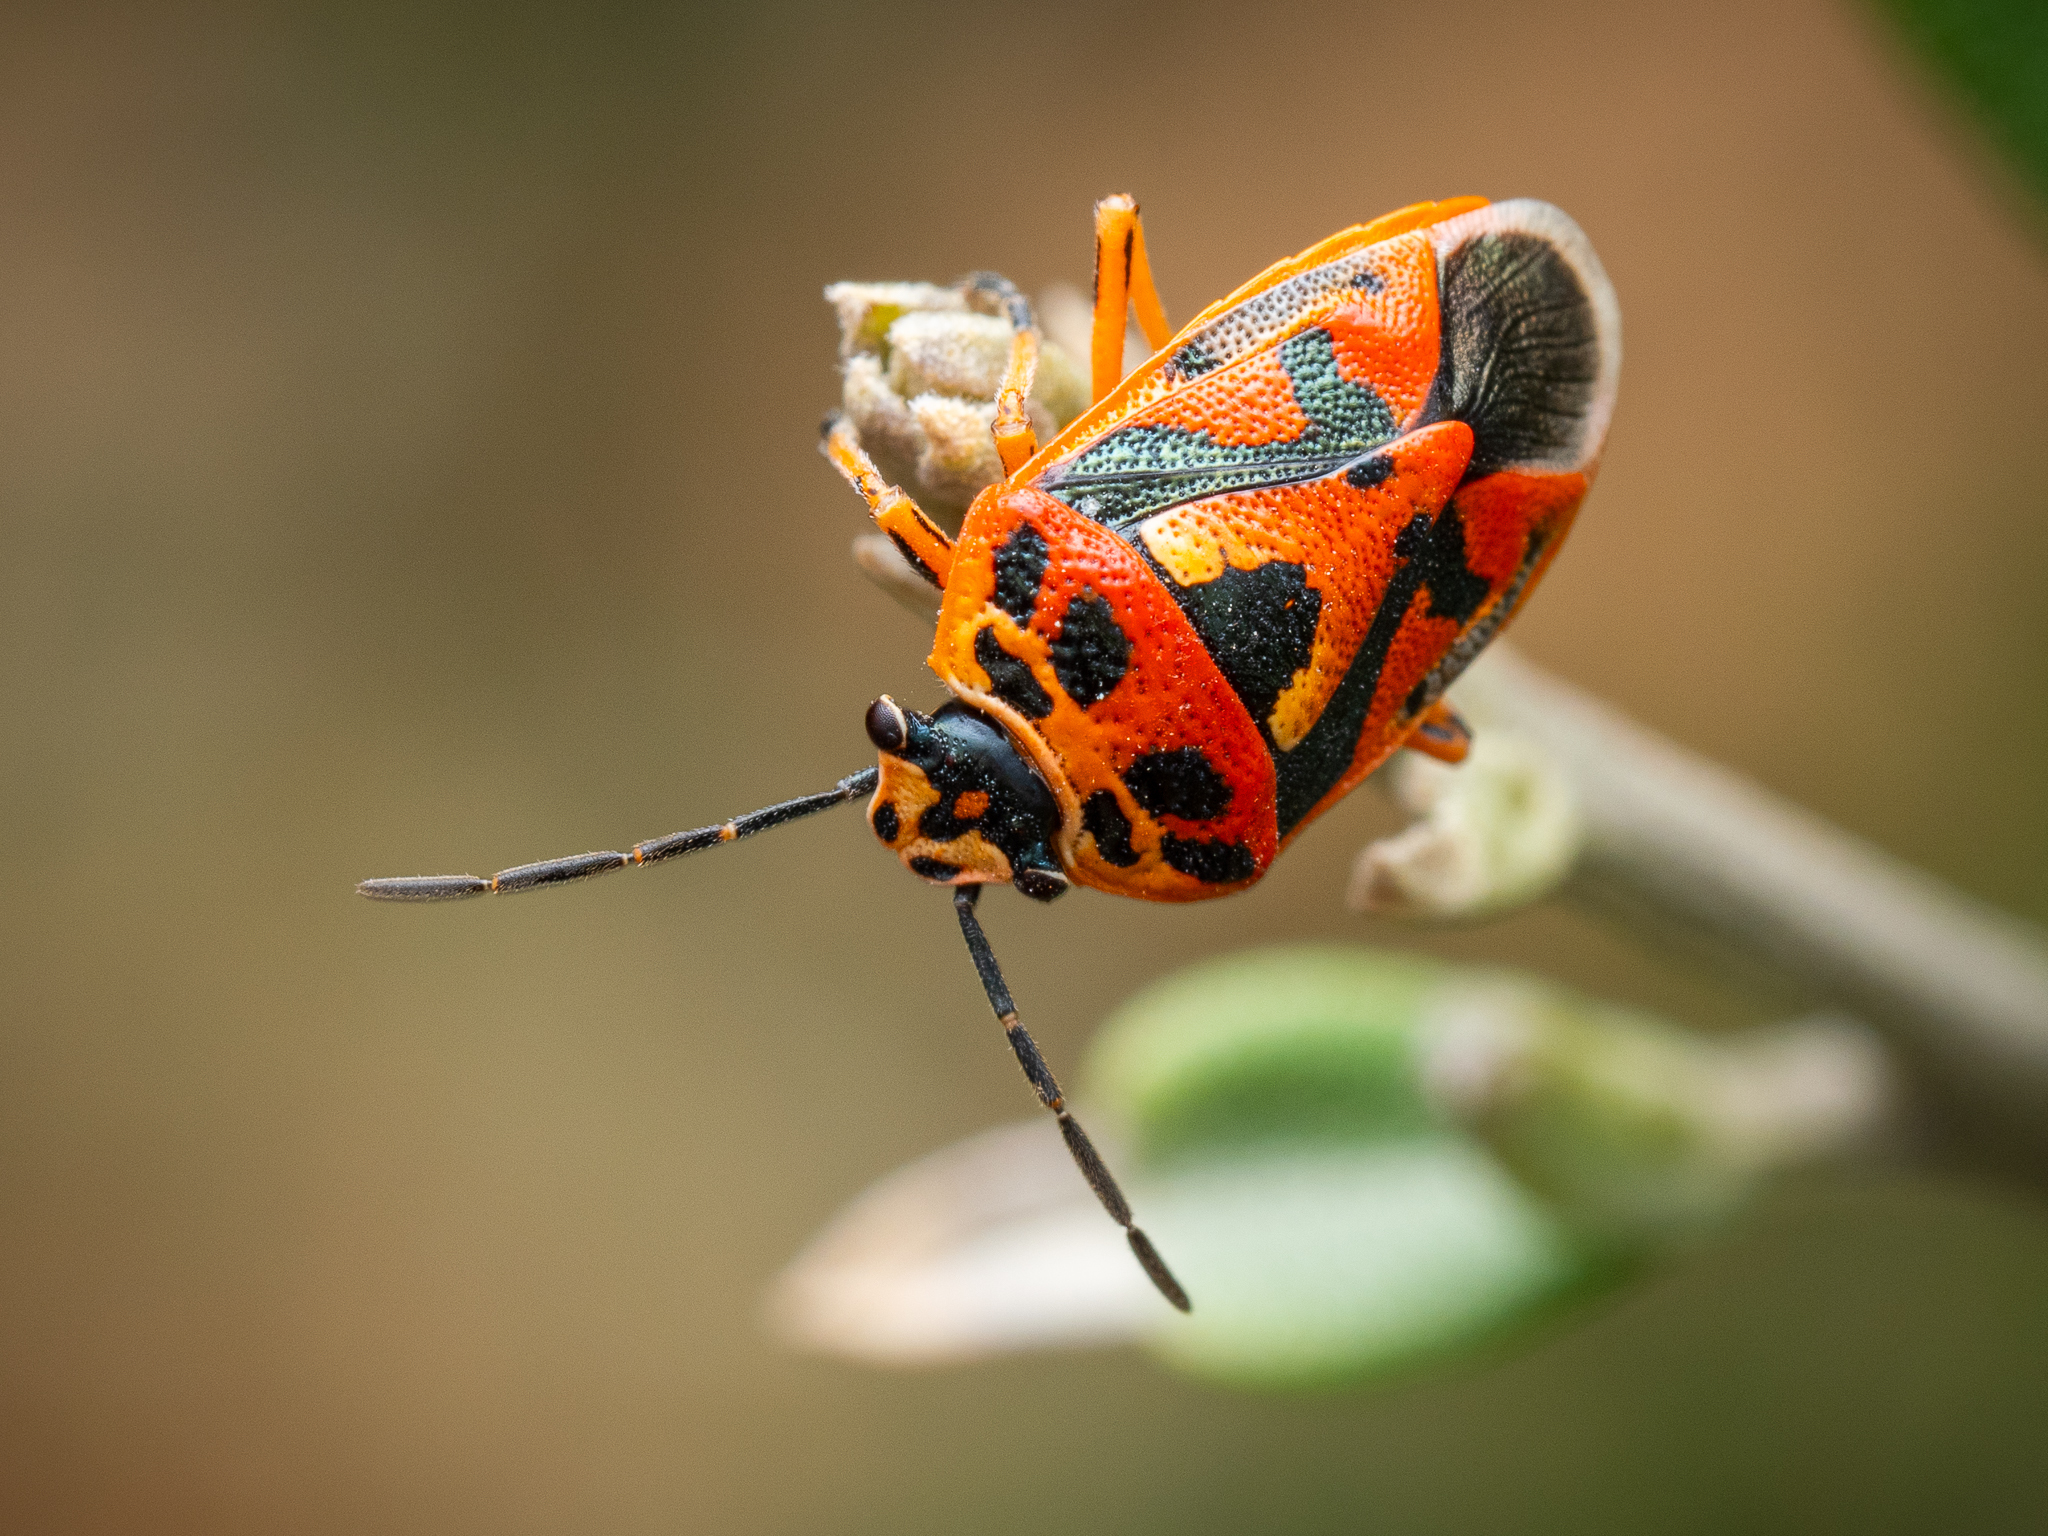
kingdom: Animalia
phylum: Arthropoda
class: Insecta
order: Hemiptera
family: Pentatomidae
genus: Eurydema
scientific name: Eurydema ornata
